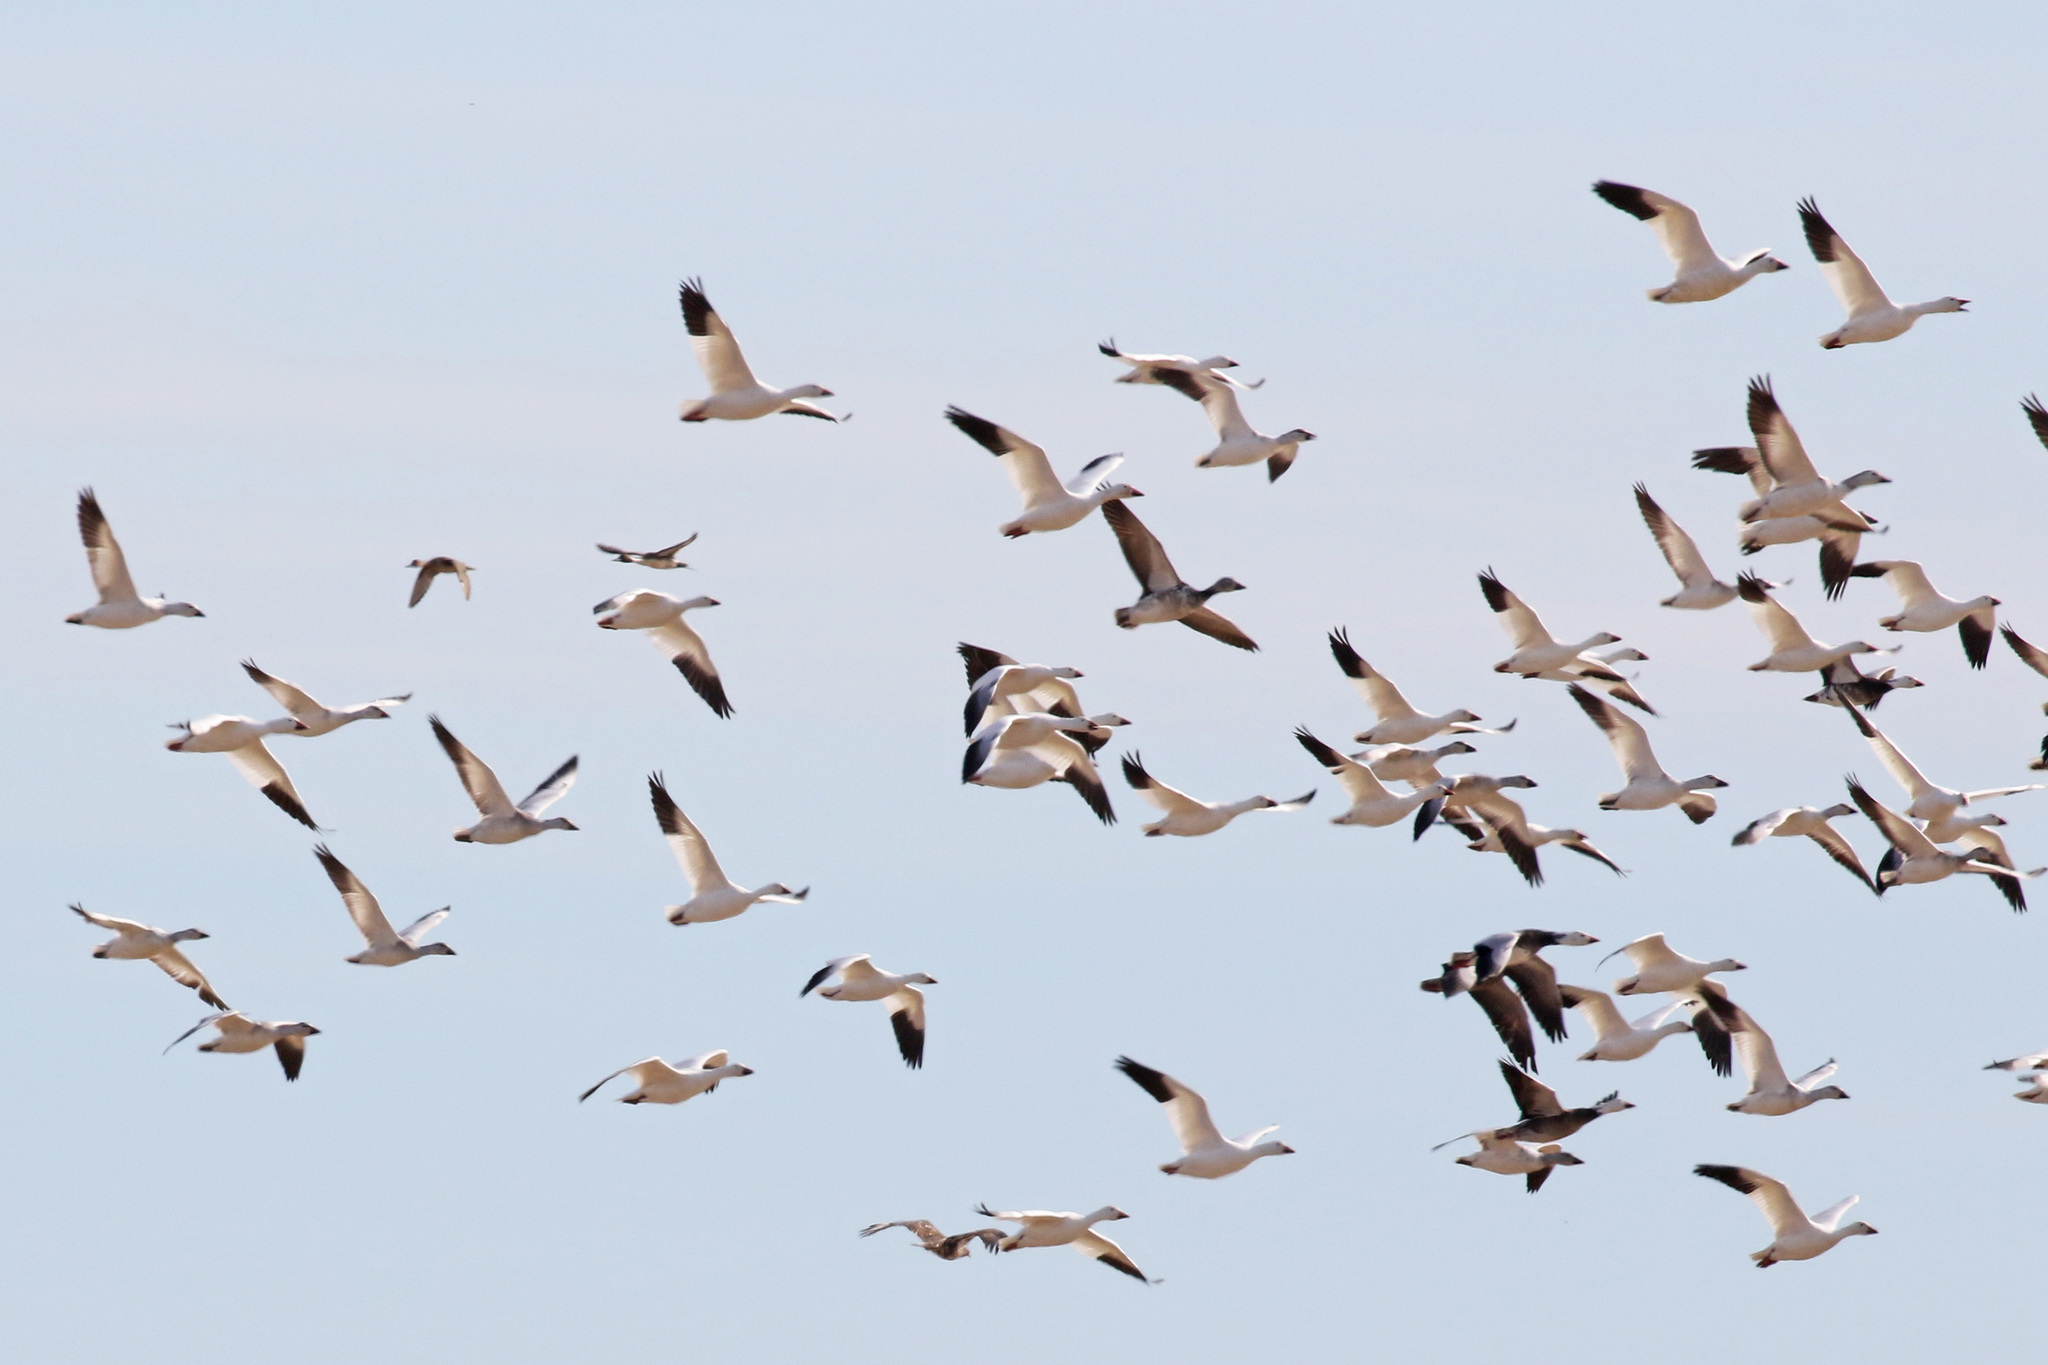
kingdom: Animalia
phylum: Chordata
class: Aves
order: Anseriformes
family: Anatidae
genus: Anser
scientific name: Anser caerulescens
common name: Snow goose
